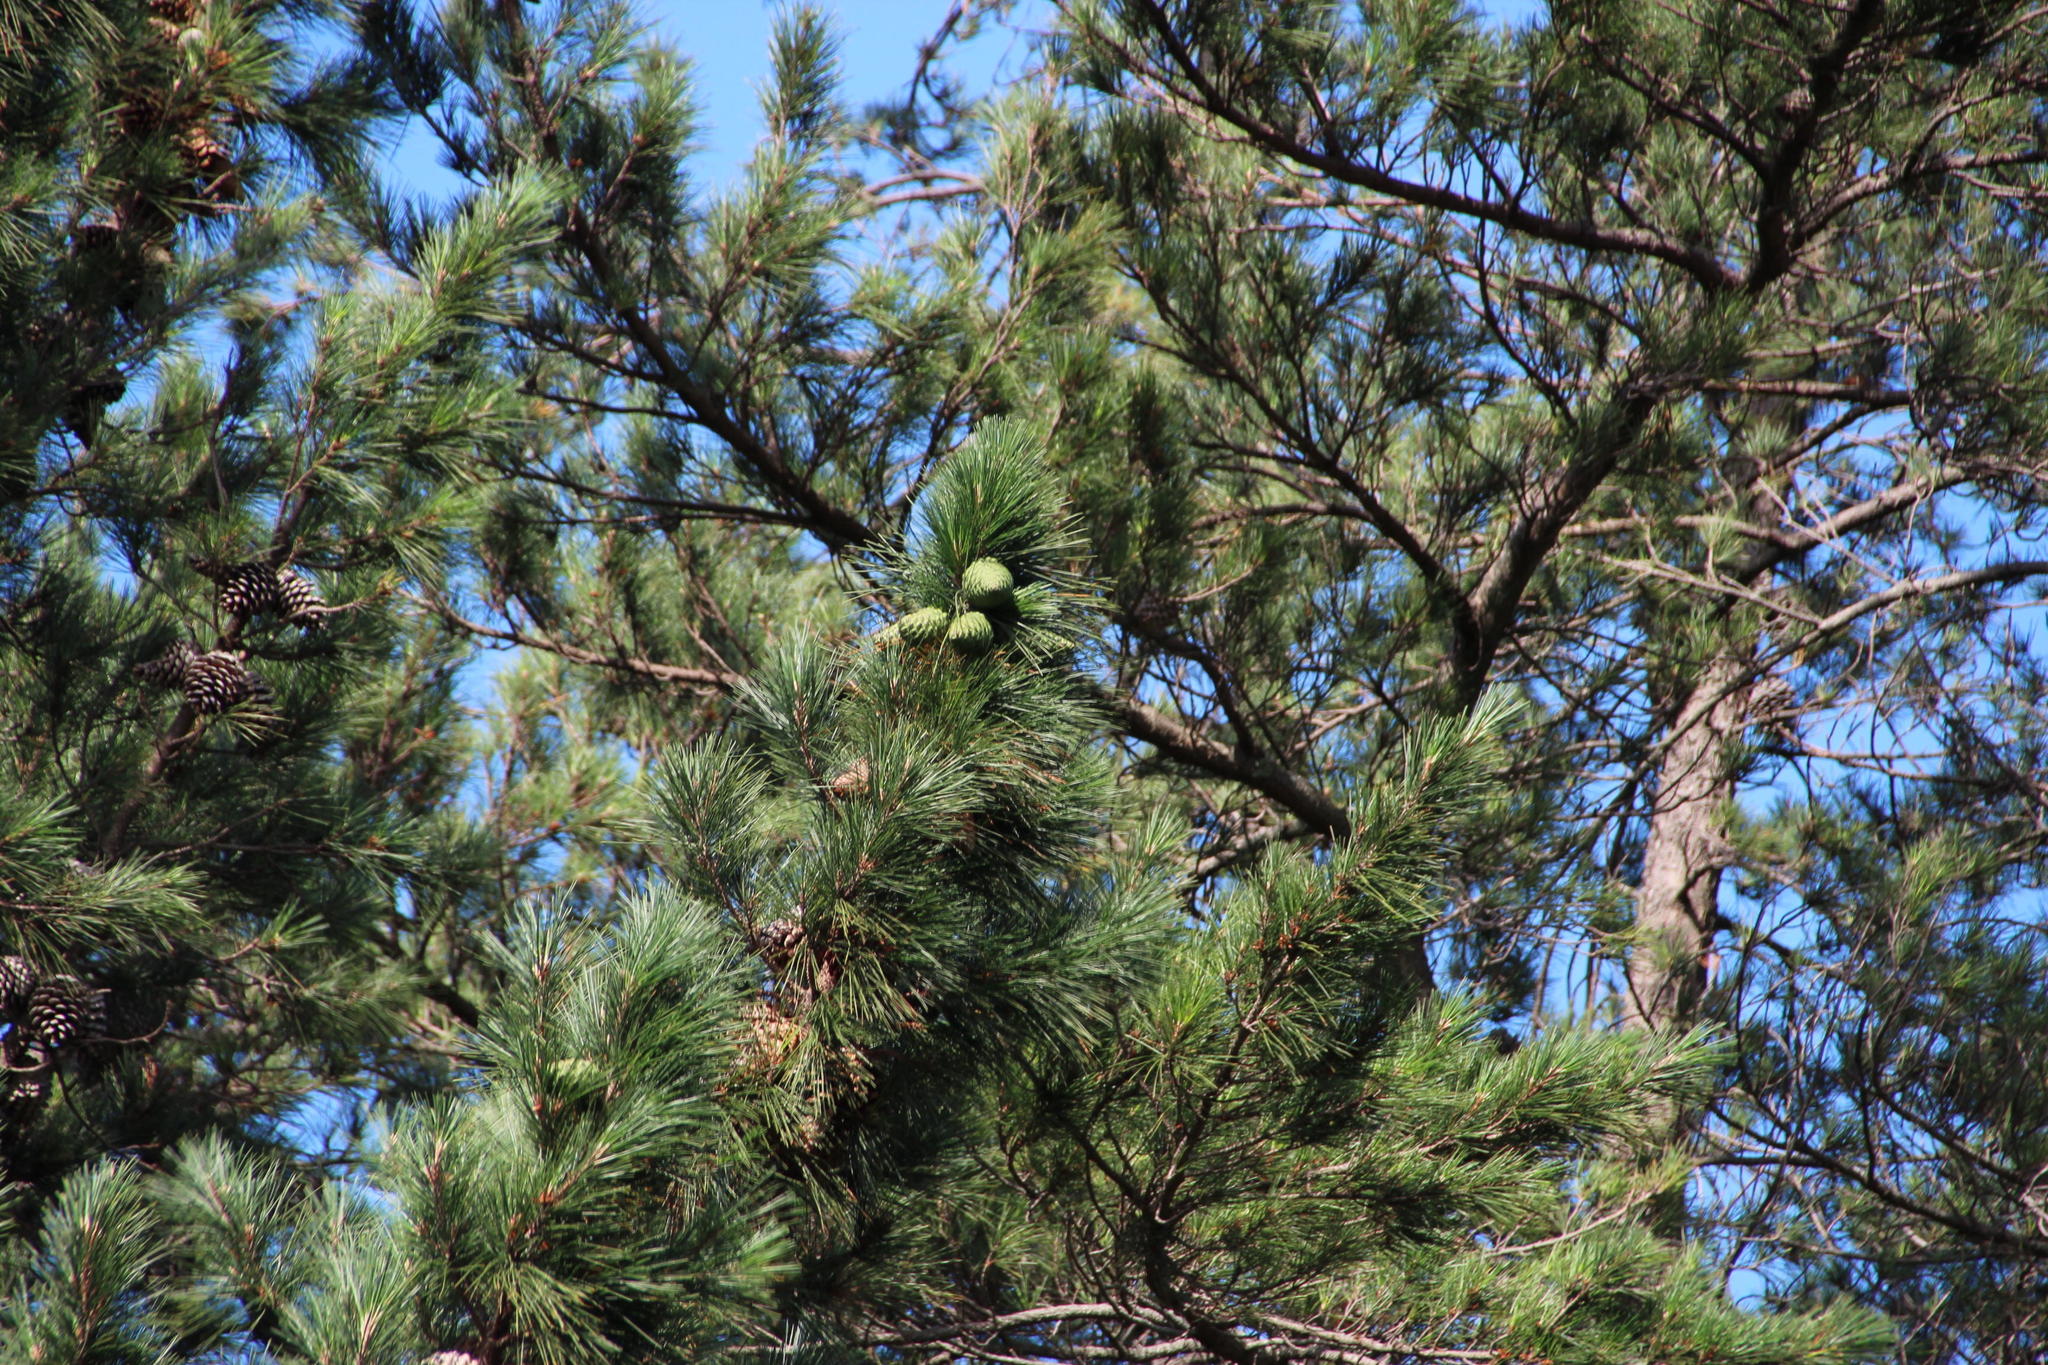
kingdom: Plantae
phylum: Tracheophyta
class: Pinopsida
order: Pinales
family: Pinaceae
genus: Pinus
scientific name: Pinus radiata
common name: Monterey pine
